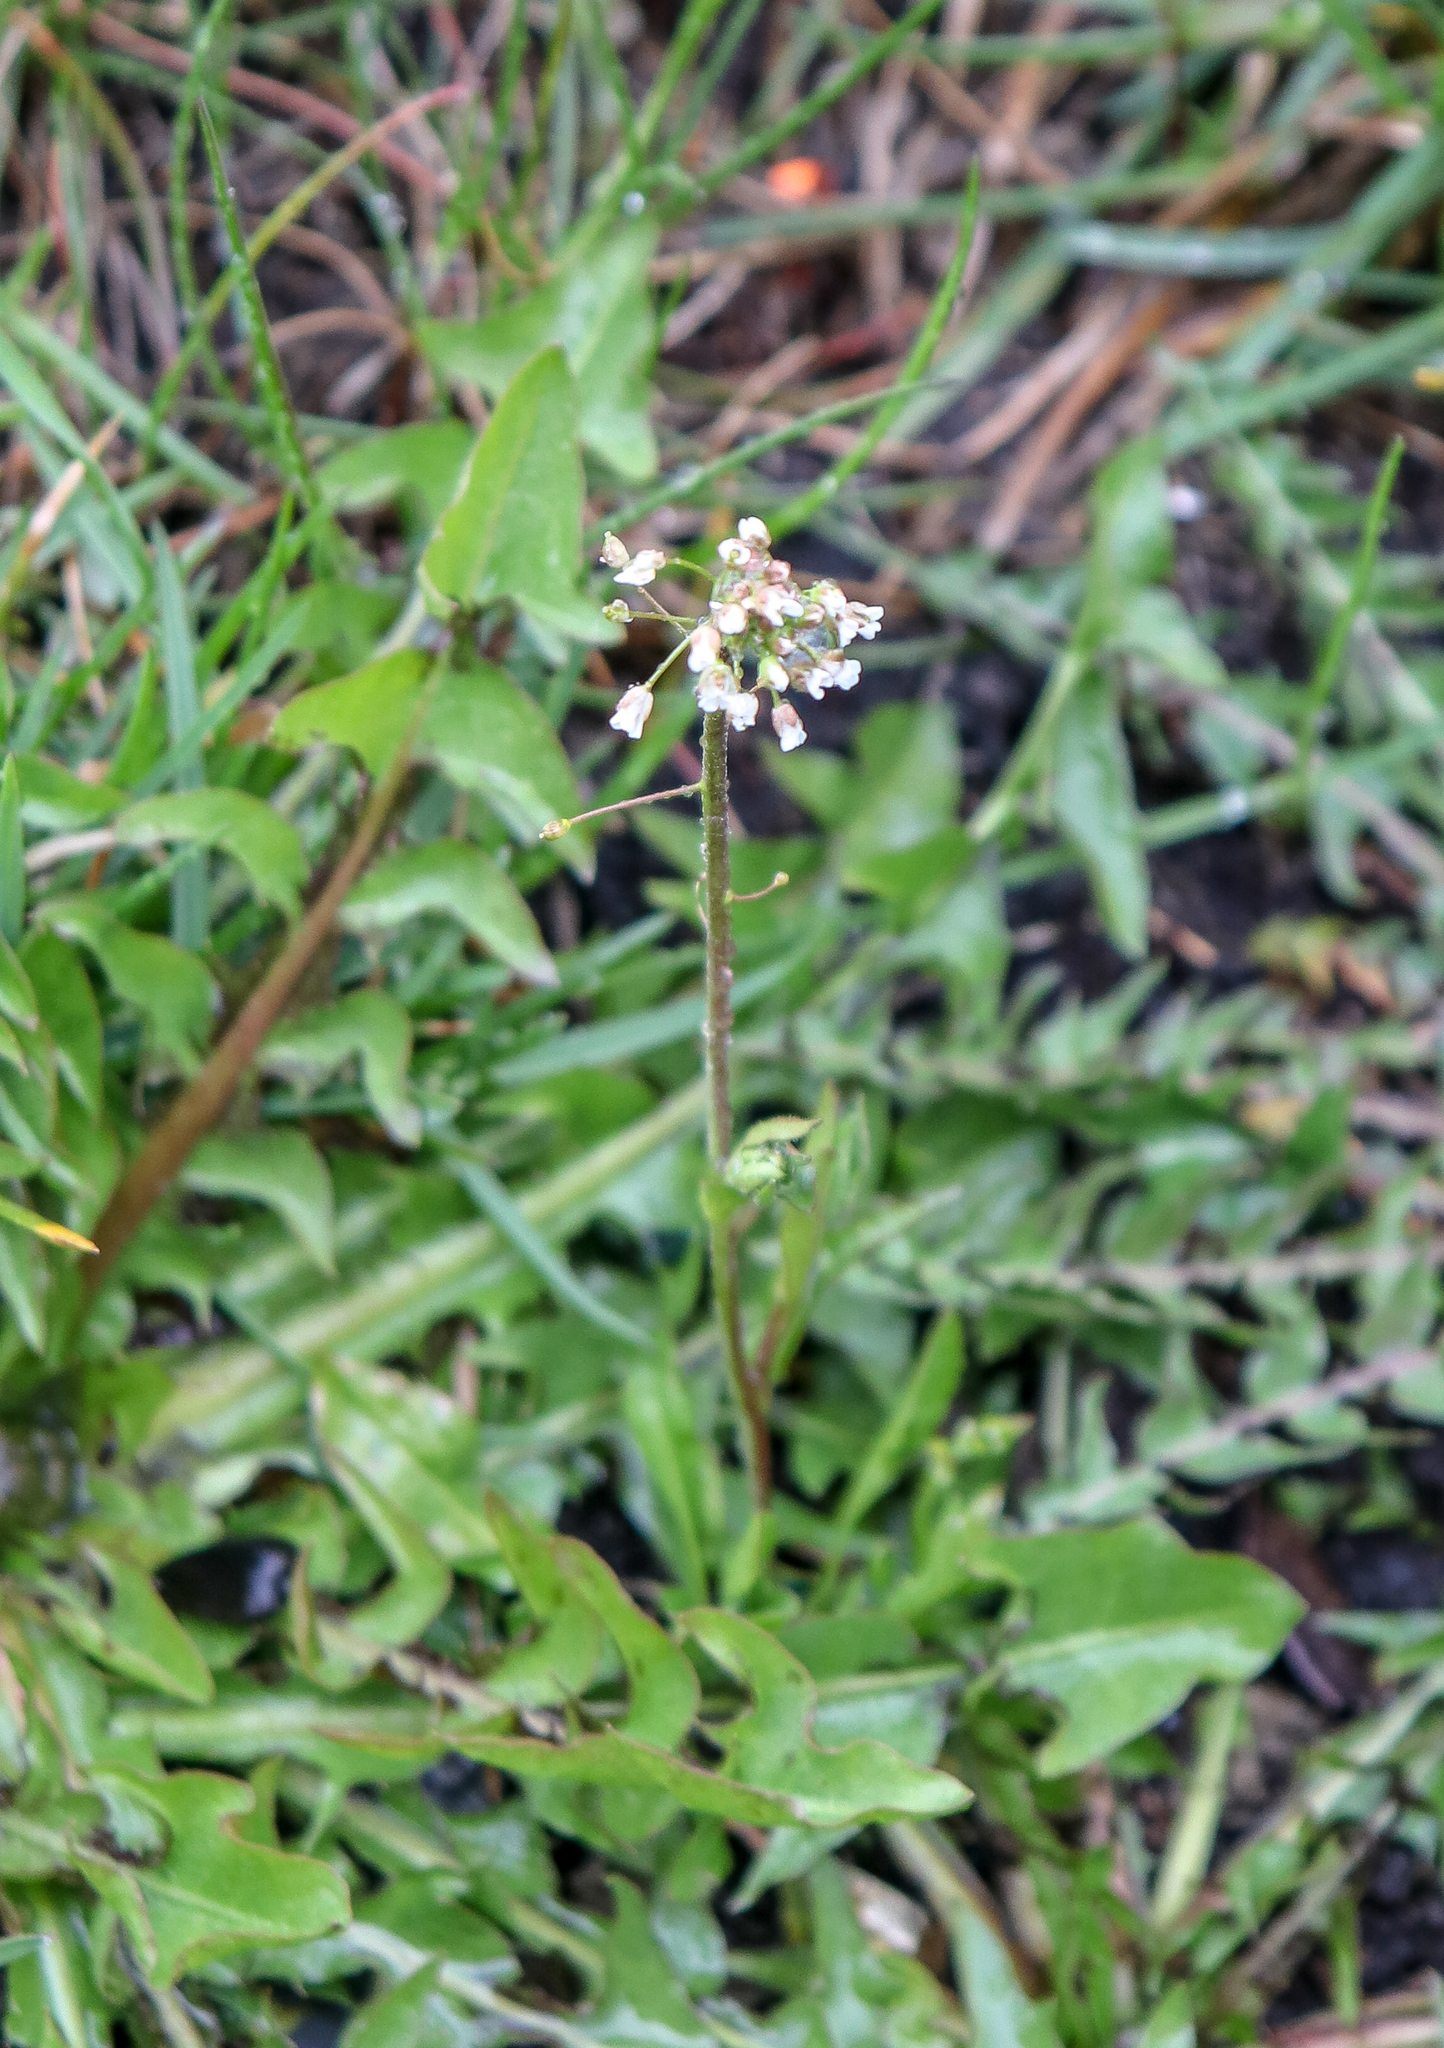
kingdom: Plantae
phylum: Tracheophyta
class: Magnoliopsida
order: Brassicales
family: Brassicaceae
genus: Capsella
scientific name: Capsella bursa-pastoris
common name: Shepherd's purse
